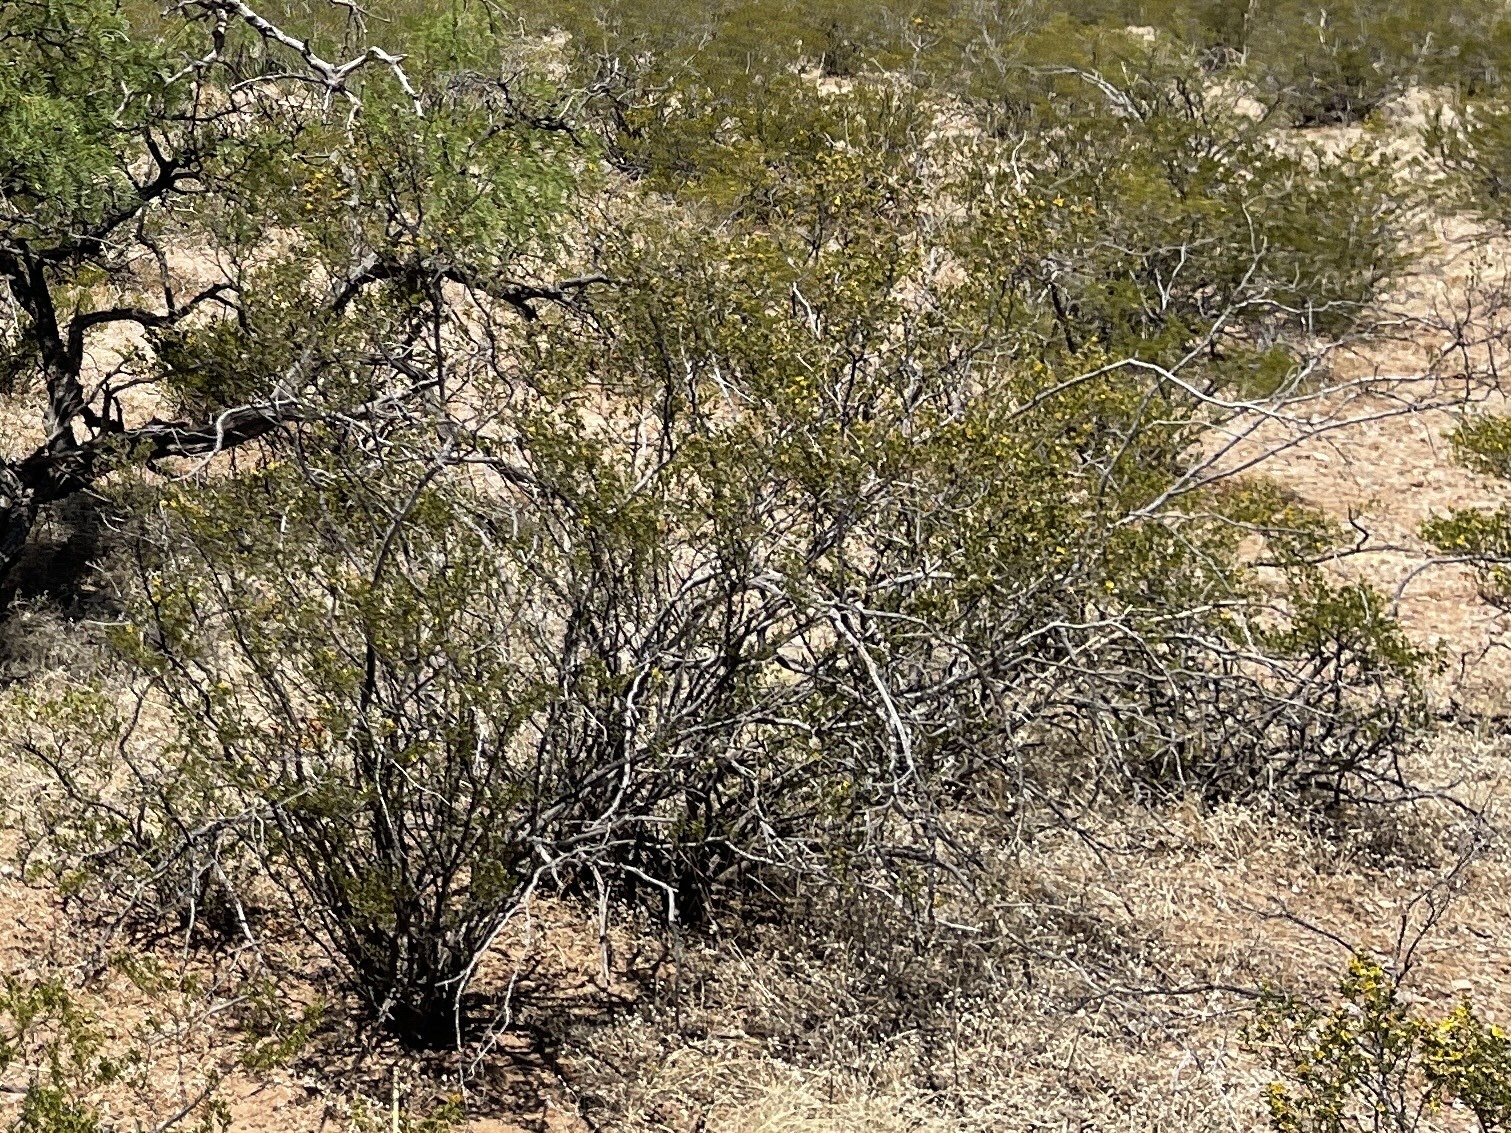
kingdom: Plantae
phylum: Tracheophyta
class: Magnoliopsida
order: Zygophyllales
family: Zygophyllaceae
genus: Larrea
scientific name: Larrea tridentata
